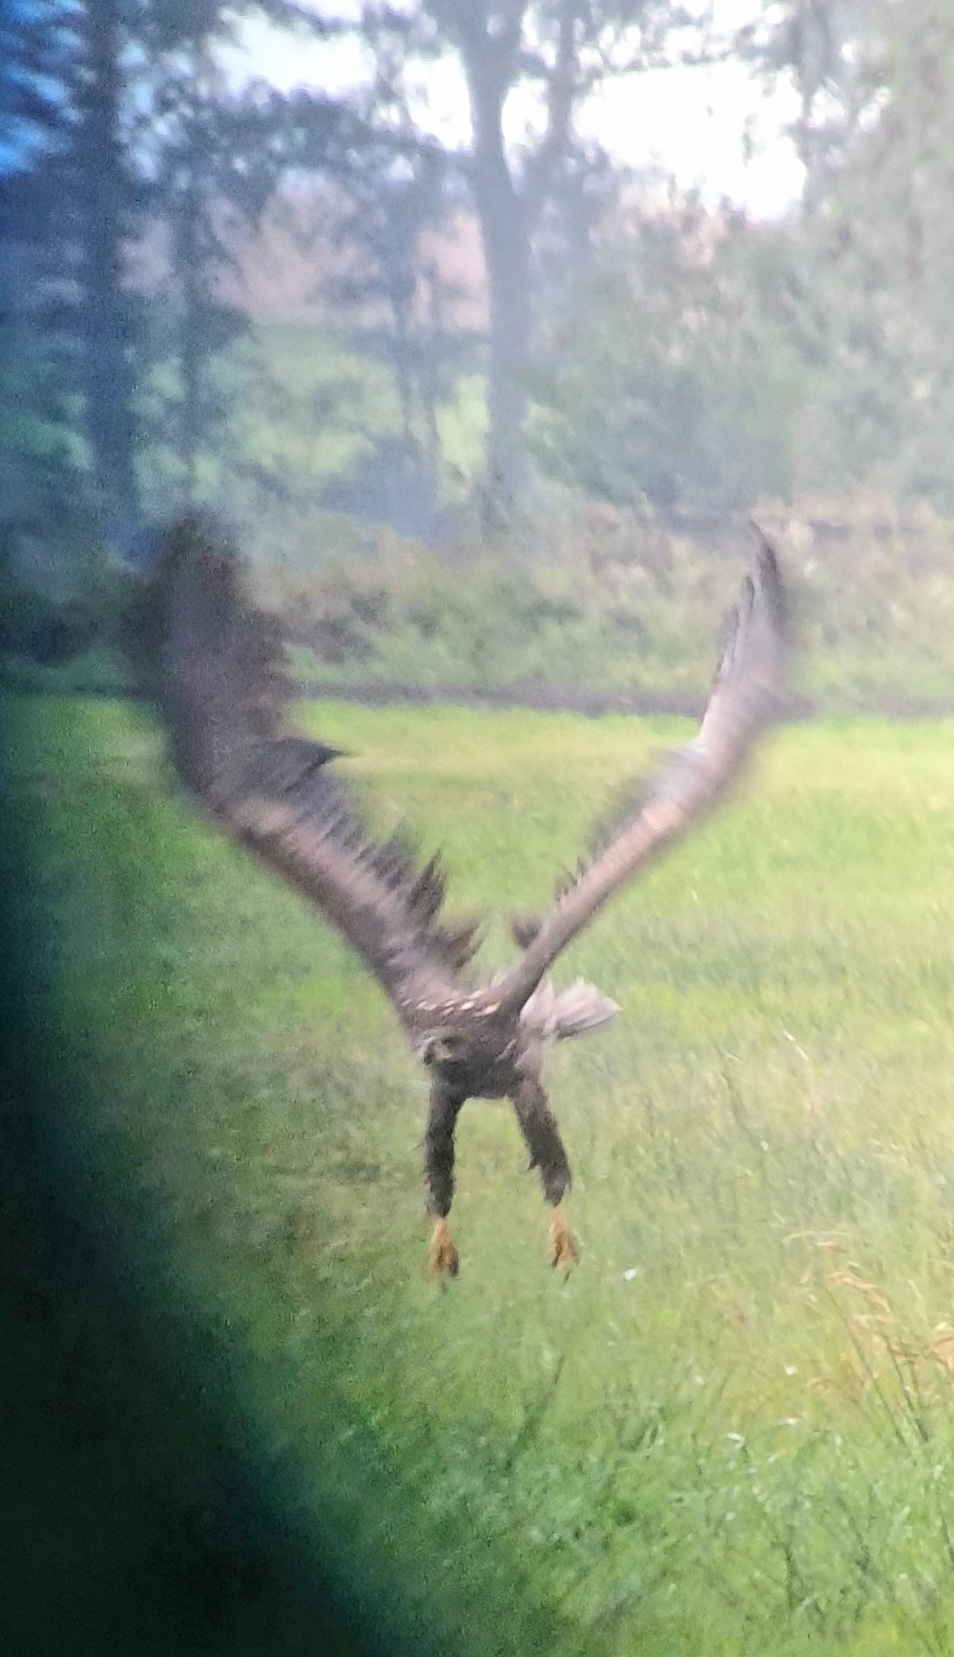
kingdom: Animalia
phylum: Chordata
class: Aves
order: Accipitriformes
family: Accipitridae
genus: Haliaeetus
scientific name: Haliaeetus albicilla
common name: White-tailed eagle
